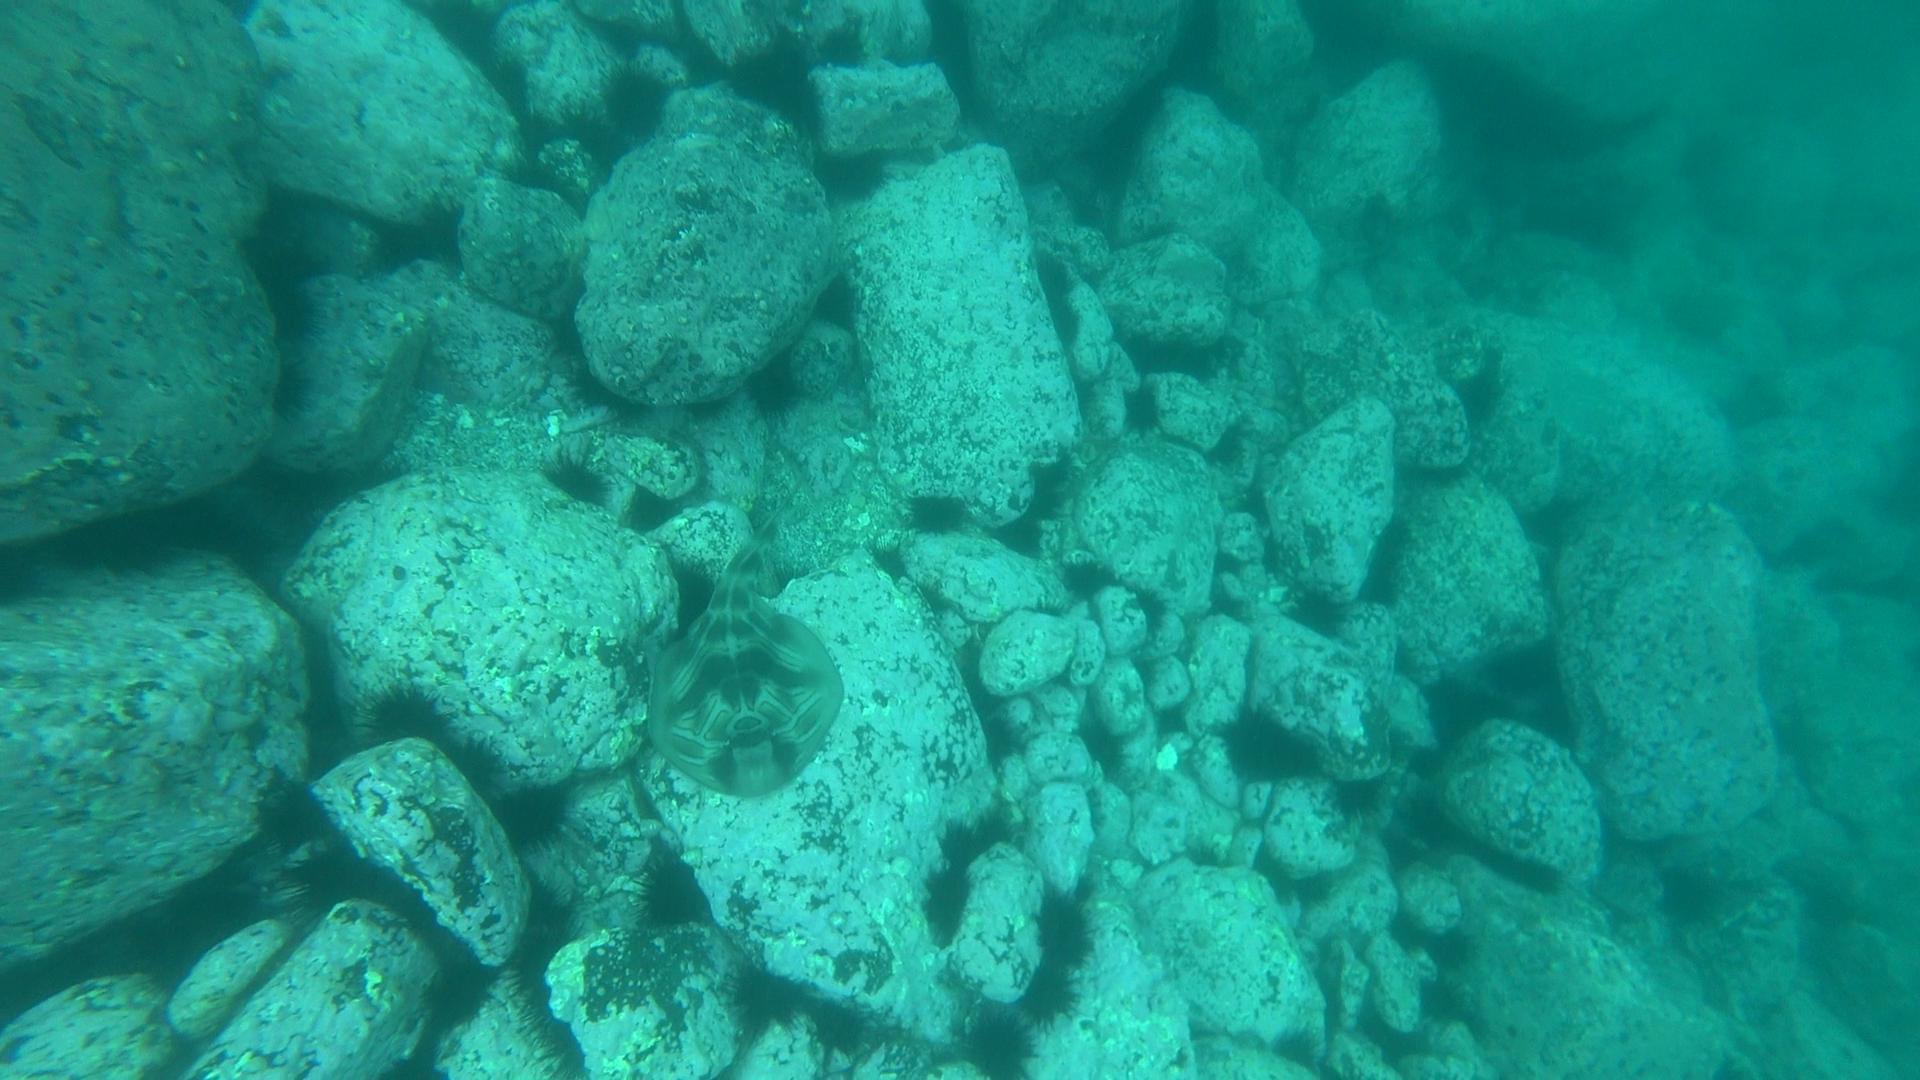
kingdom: Animalia
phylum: Chordata
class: Elasmobranchii
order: Rhinopristiformes
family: Rhinobatidae
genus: Trygonorrhina
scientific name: Trygonorrhina fasciata
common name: Southern fiddler
